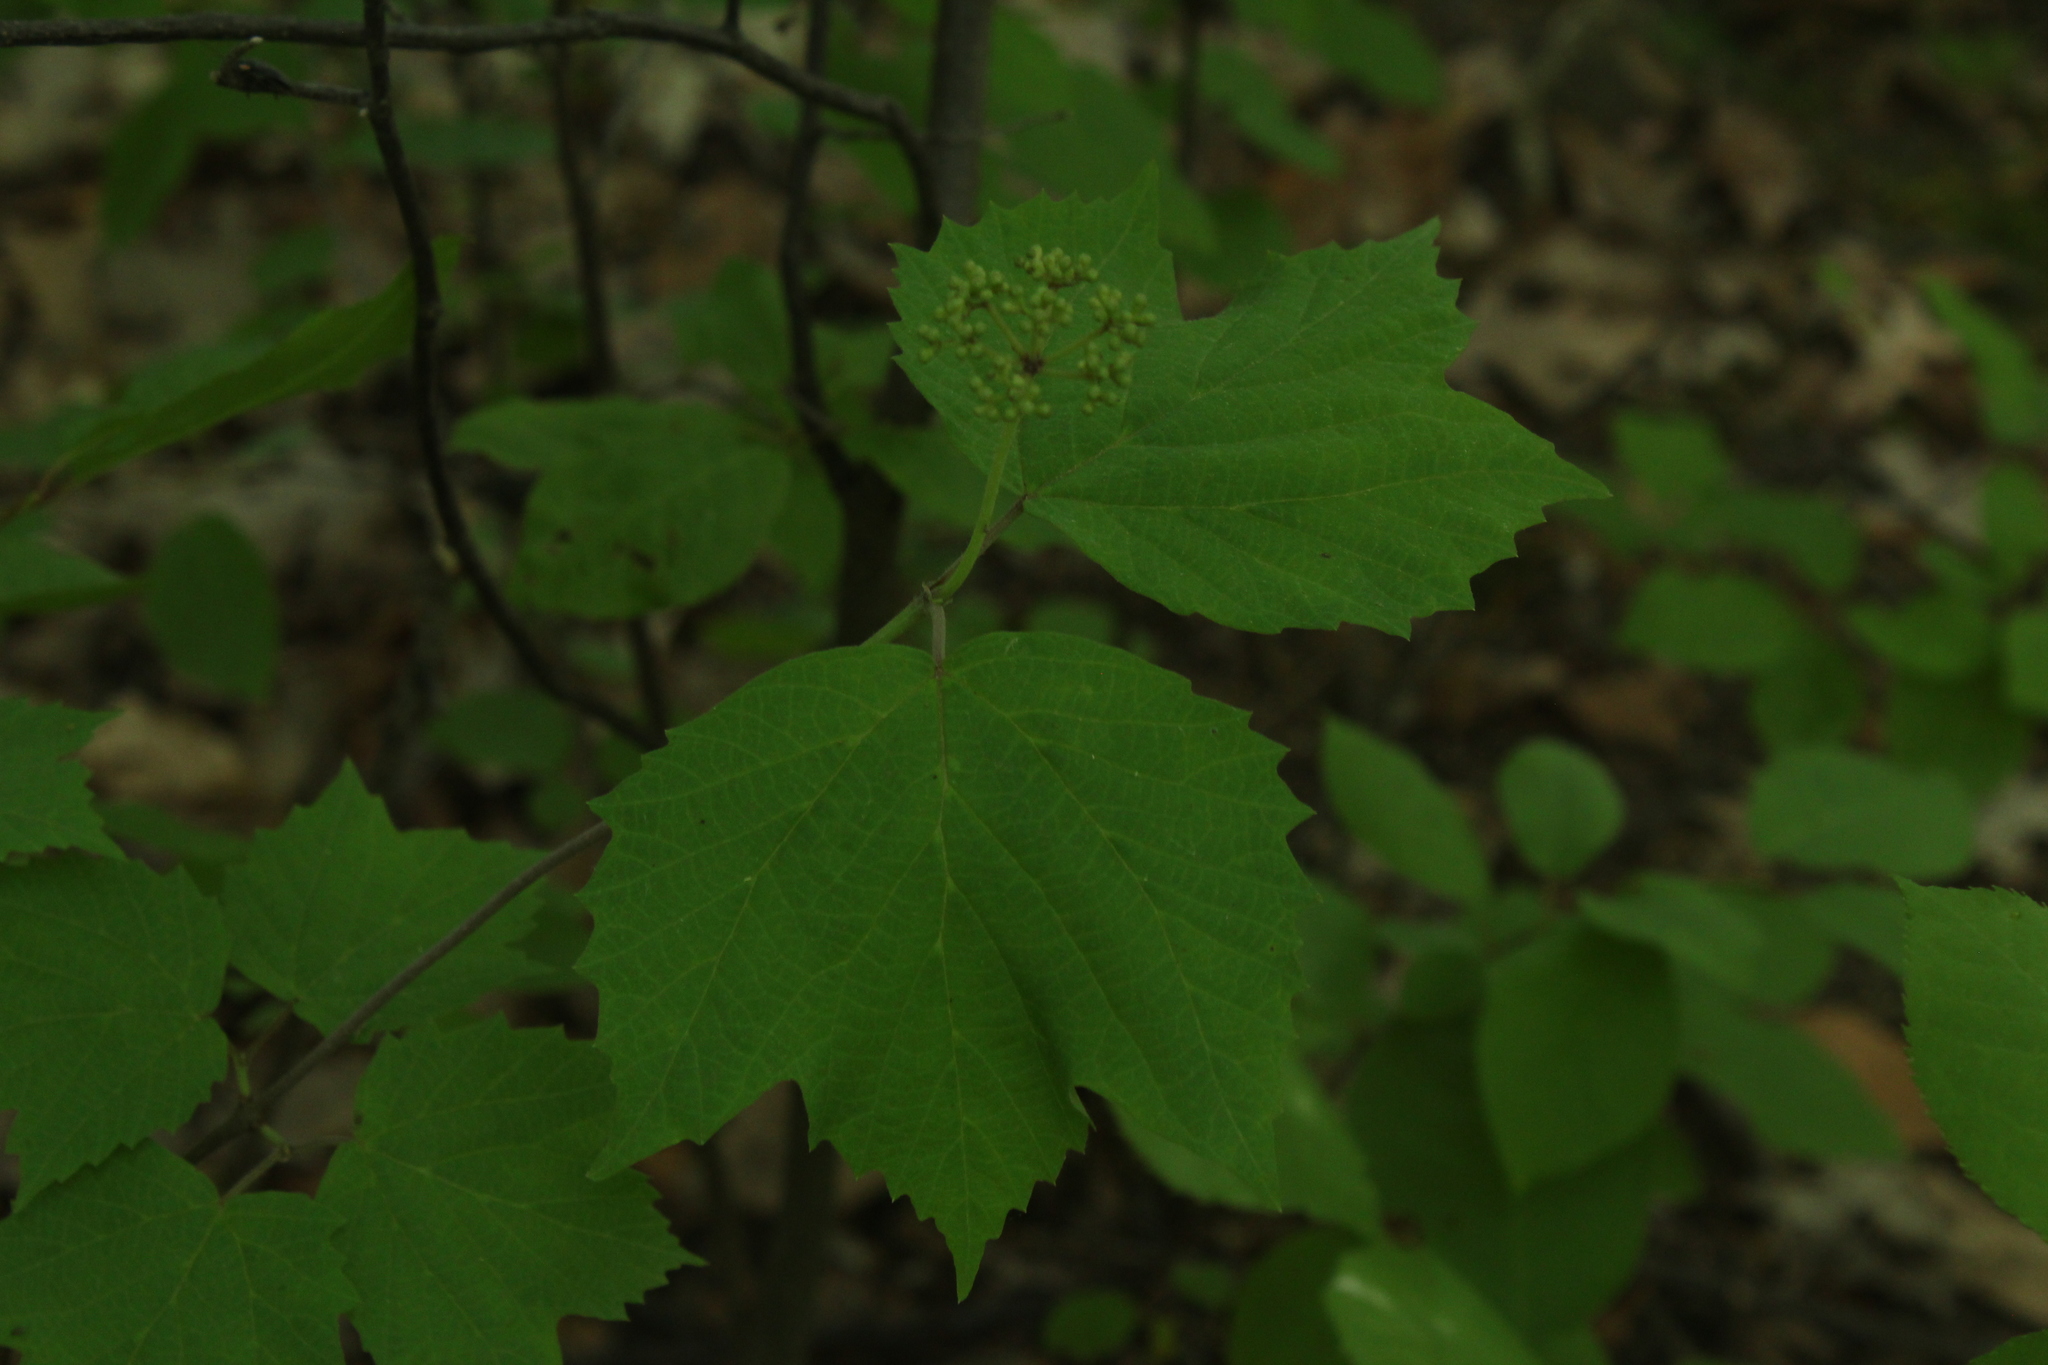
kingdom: Plantae
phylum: Tracheophyta
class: Magnoliopsida
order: Dipsacales
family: Viburnaceae
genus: Viburnum
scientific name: Viburnum acerifolium
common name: Dockmackie
